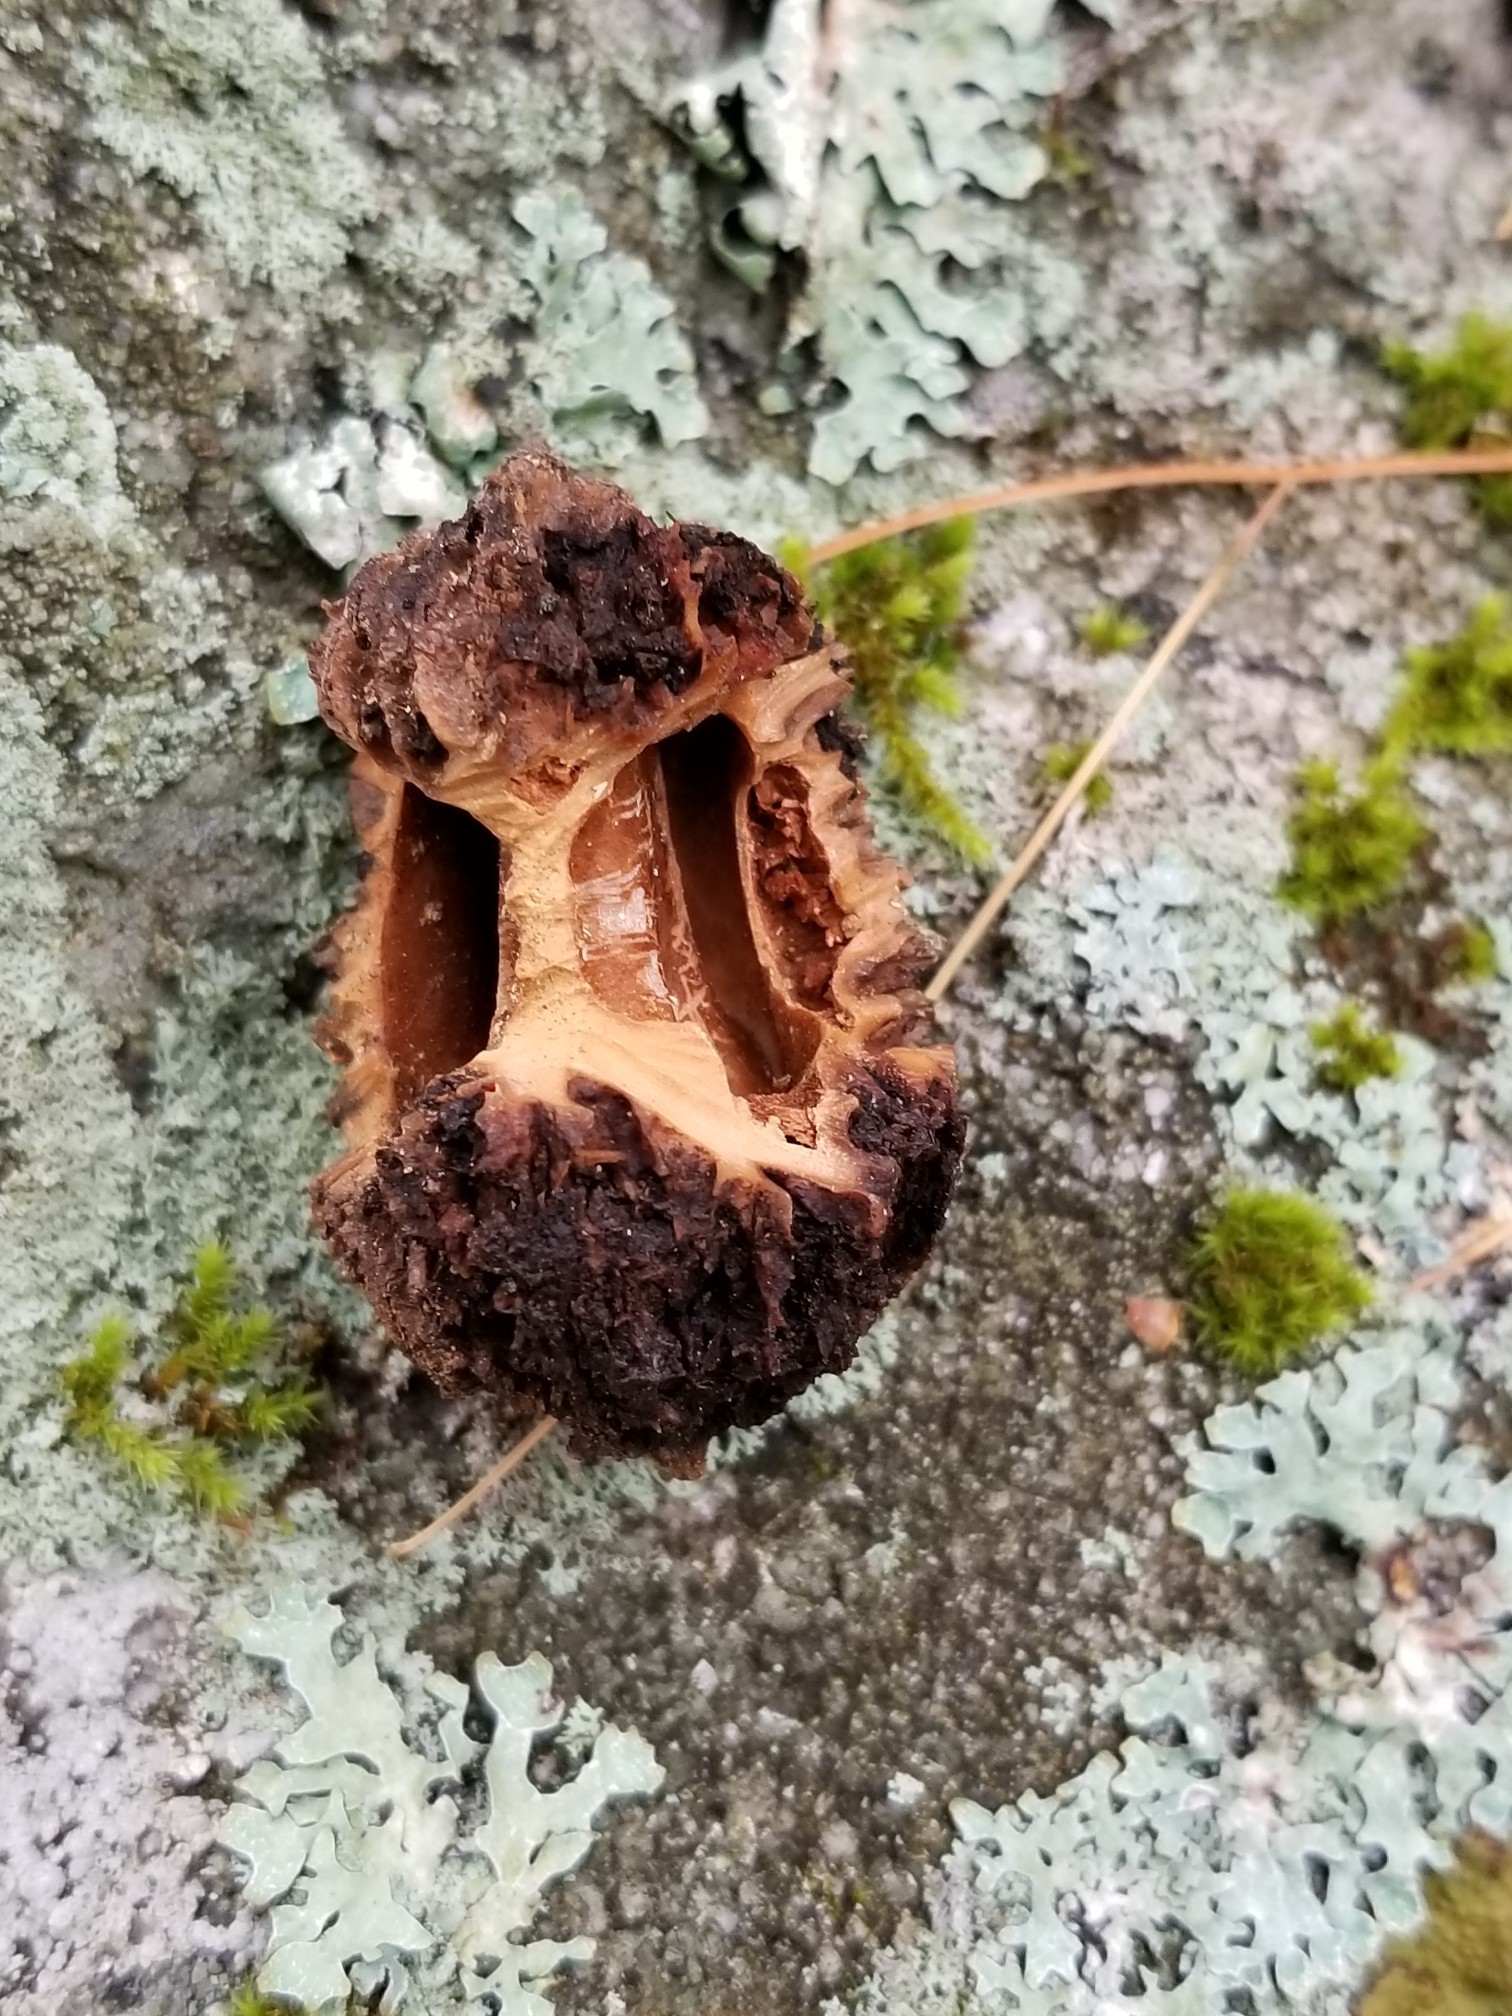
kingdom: Plantae
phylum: Tracheophyta
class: Magnoliopsida
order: Fagales
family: Juglandaceae
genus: Juglans
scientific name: Juglans cinerea
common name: Butternut
